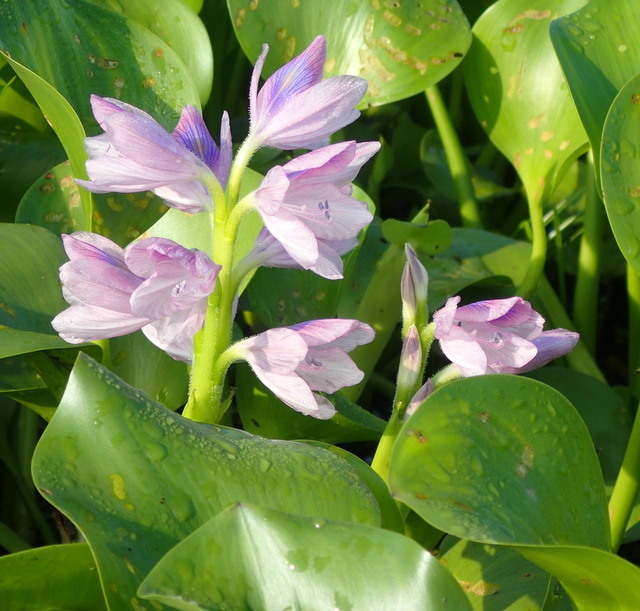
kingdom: Plantae
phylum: Tracheophyta
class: Liliopsida
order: Commelinales
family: Pontederiaceae
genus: Pontederia
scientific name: Pontederia crassipes
